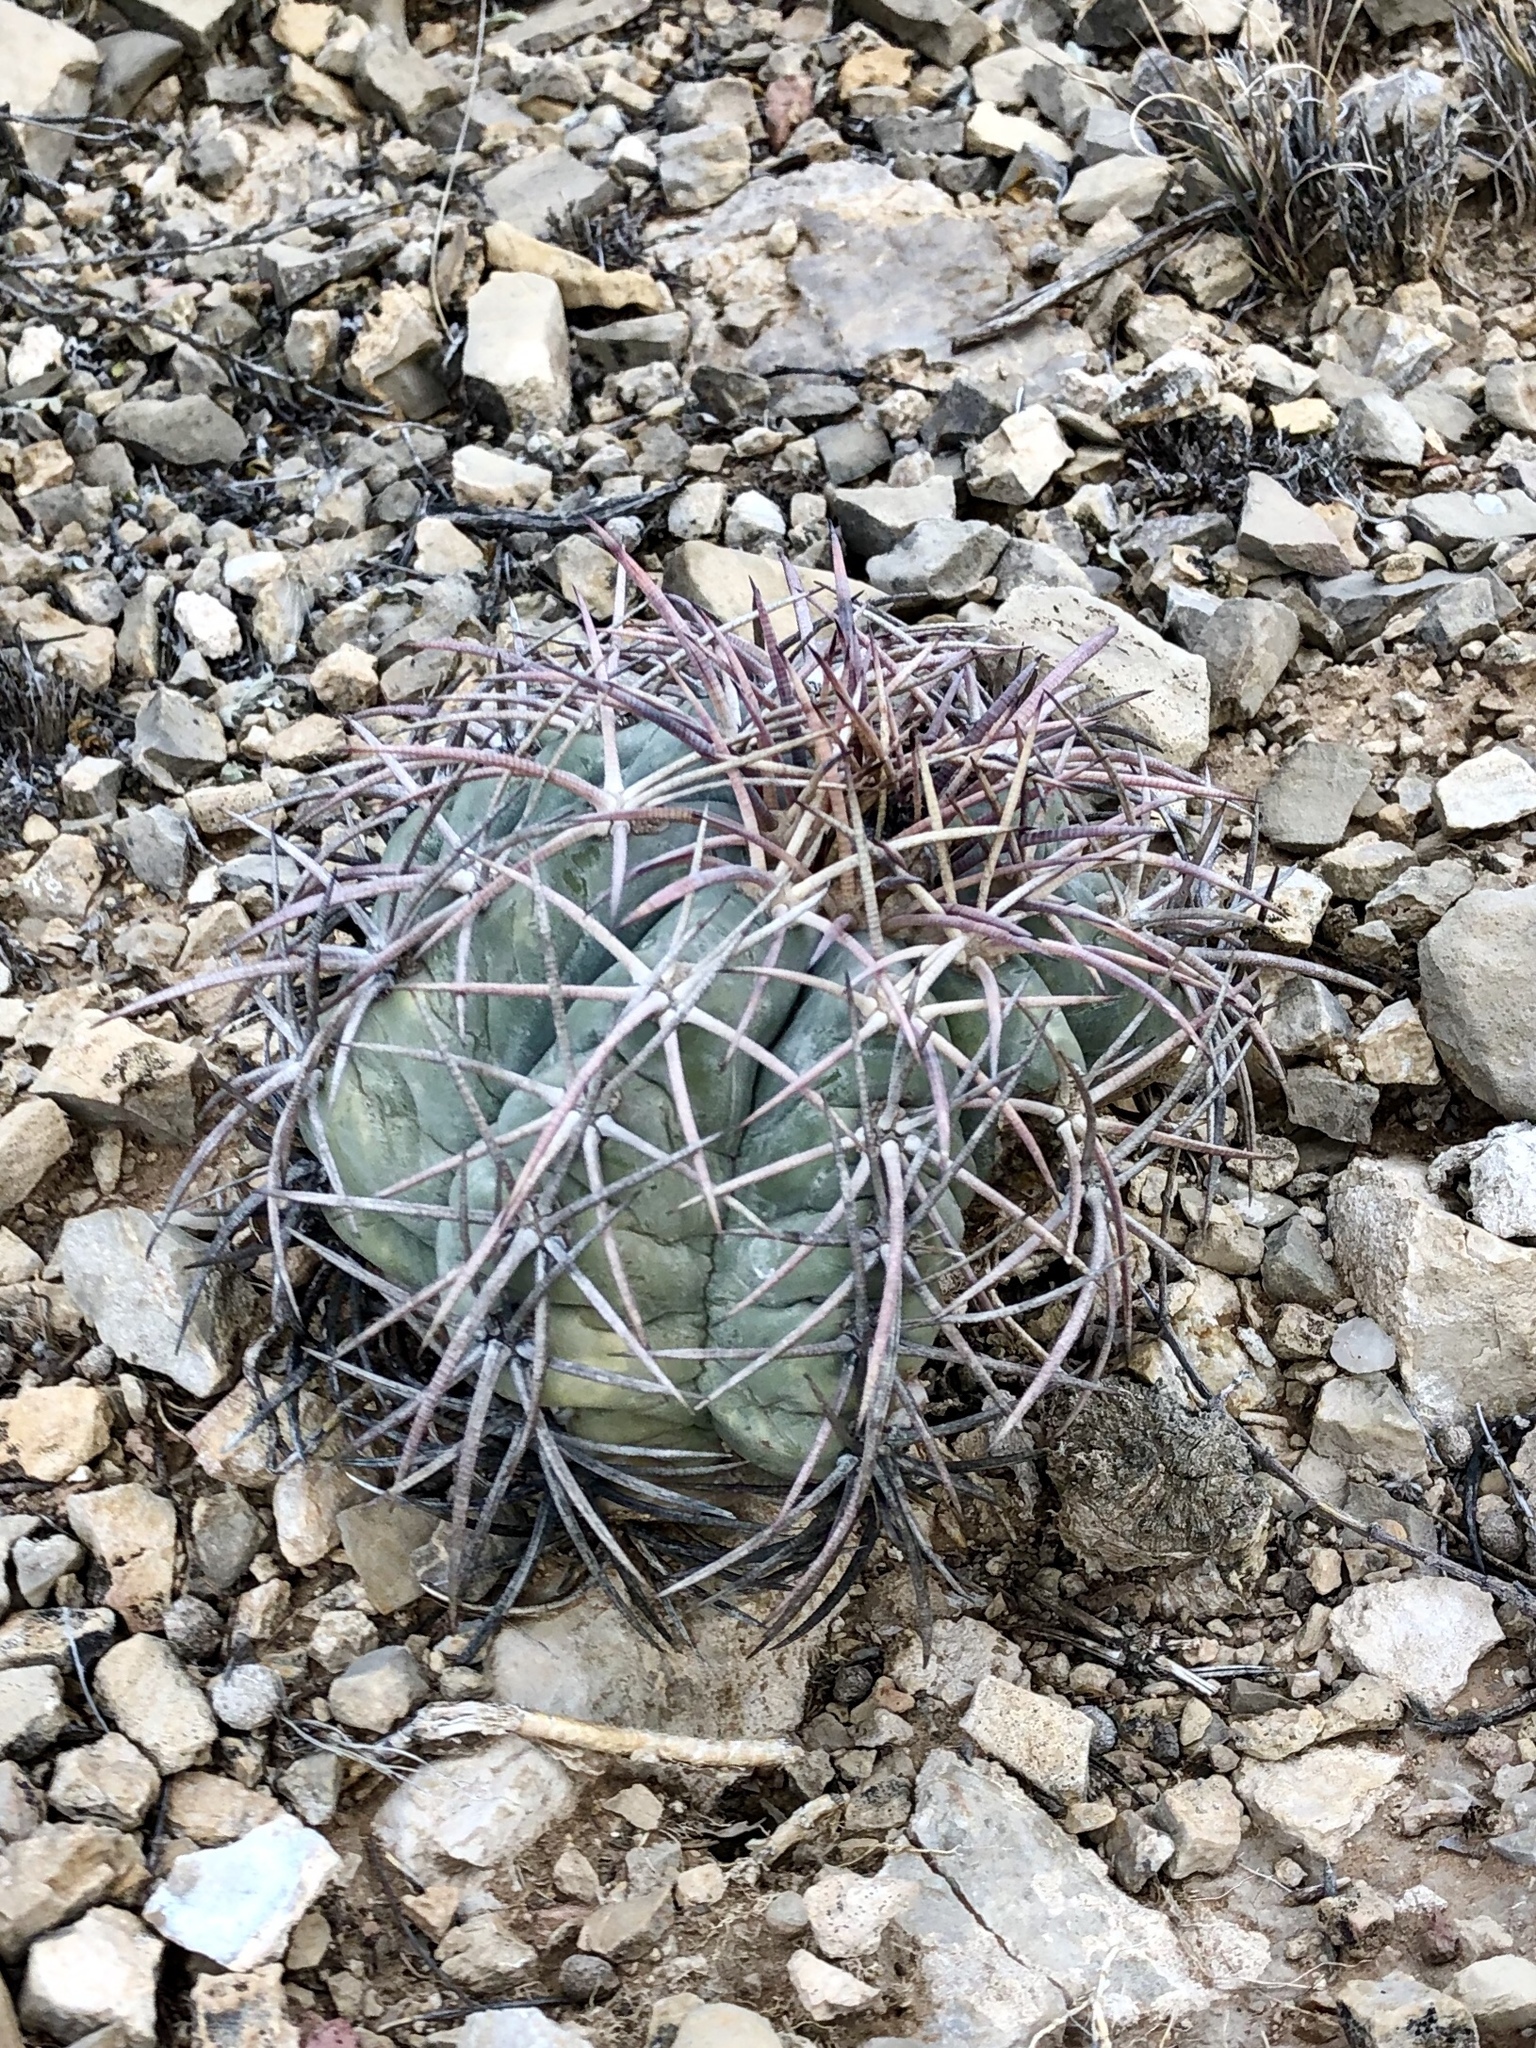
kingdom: Plantae
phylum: Tracheophyta
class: Magnoliopsida
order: Caryophyllales
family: Cactaceae
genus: Echinocactus
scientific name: Echinocactus horizonthalonius
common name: Devilshead
